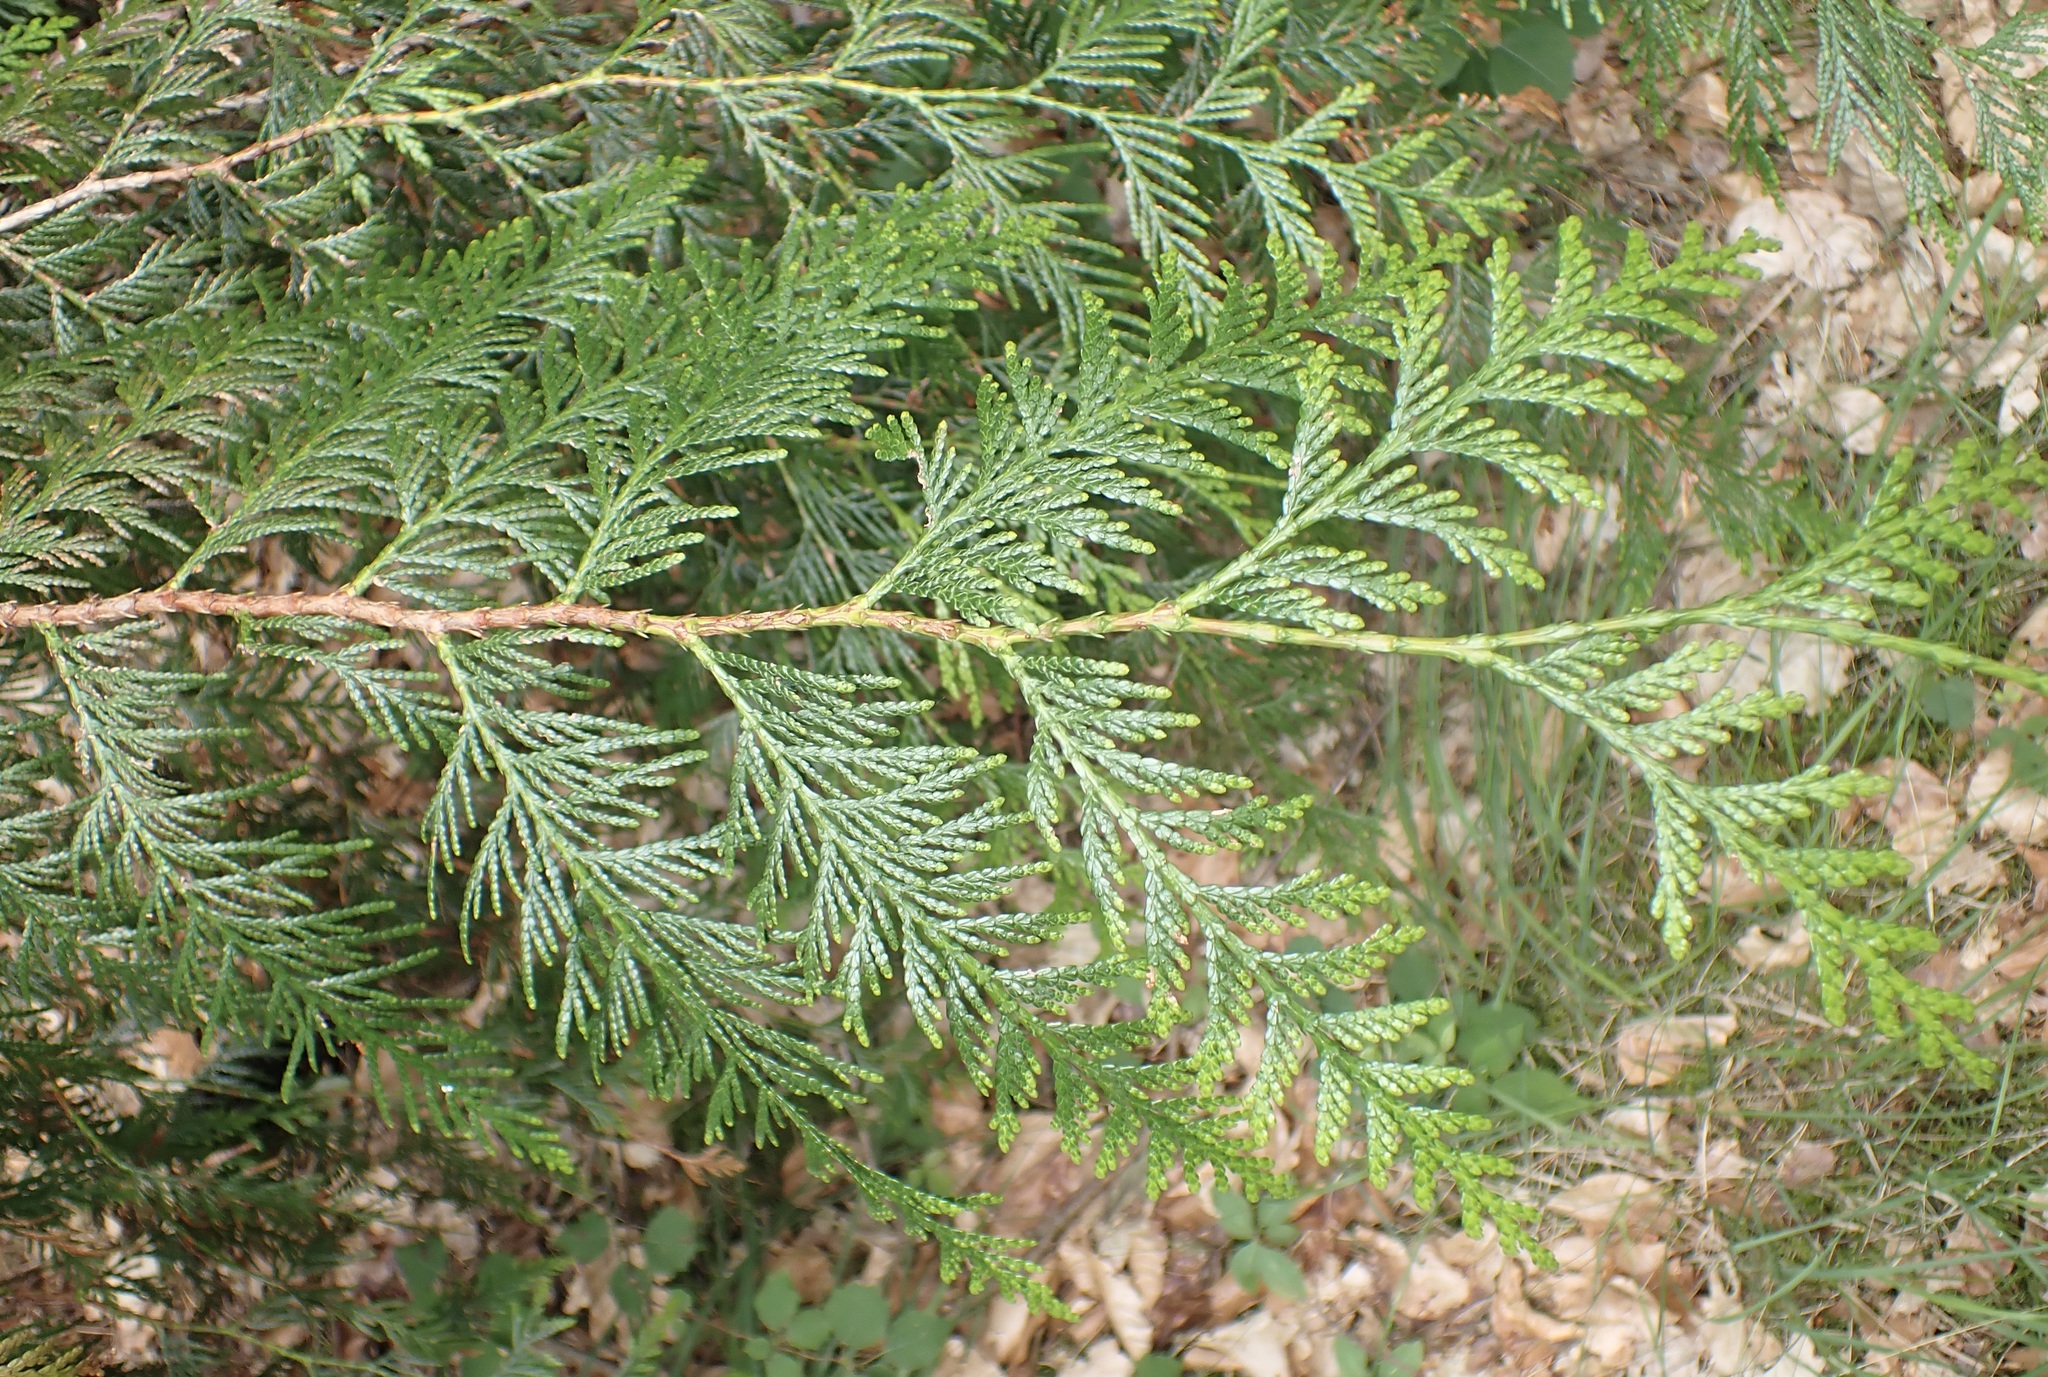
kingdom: Plantae
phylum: Tracheophyta
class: Pinopsida
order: Pinales
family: Cupressaceae
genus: Thuja
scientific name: Thuja plicata
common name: Western red-cedar
